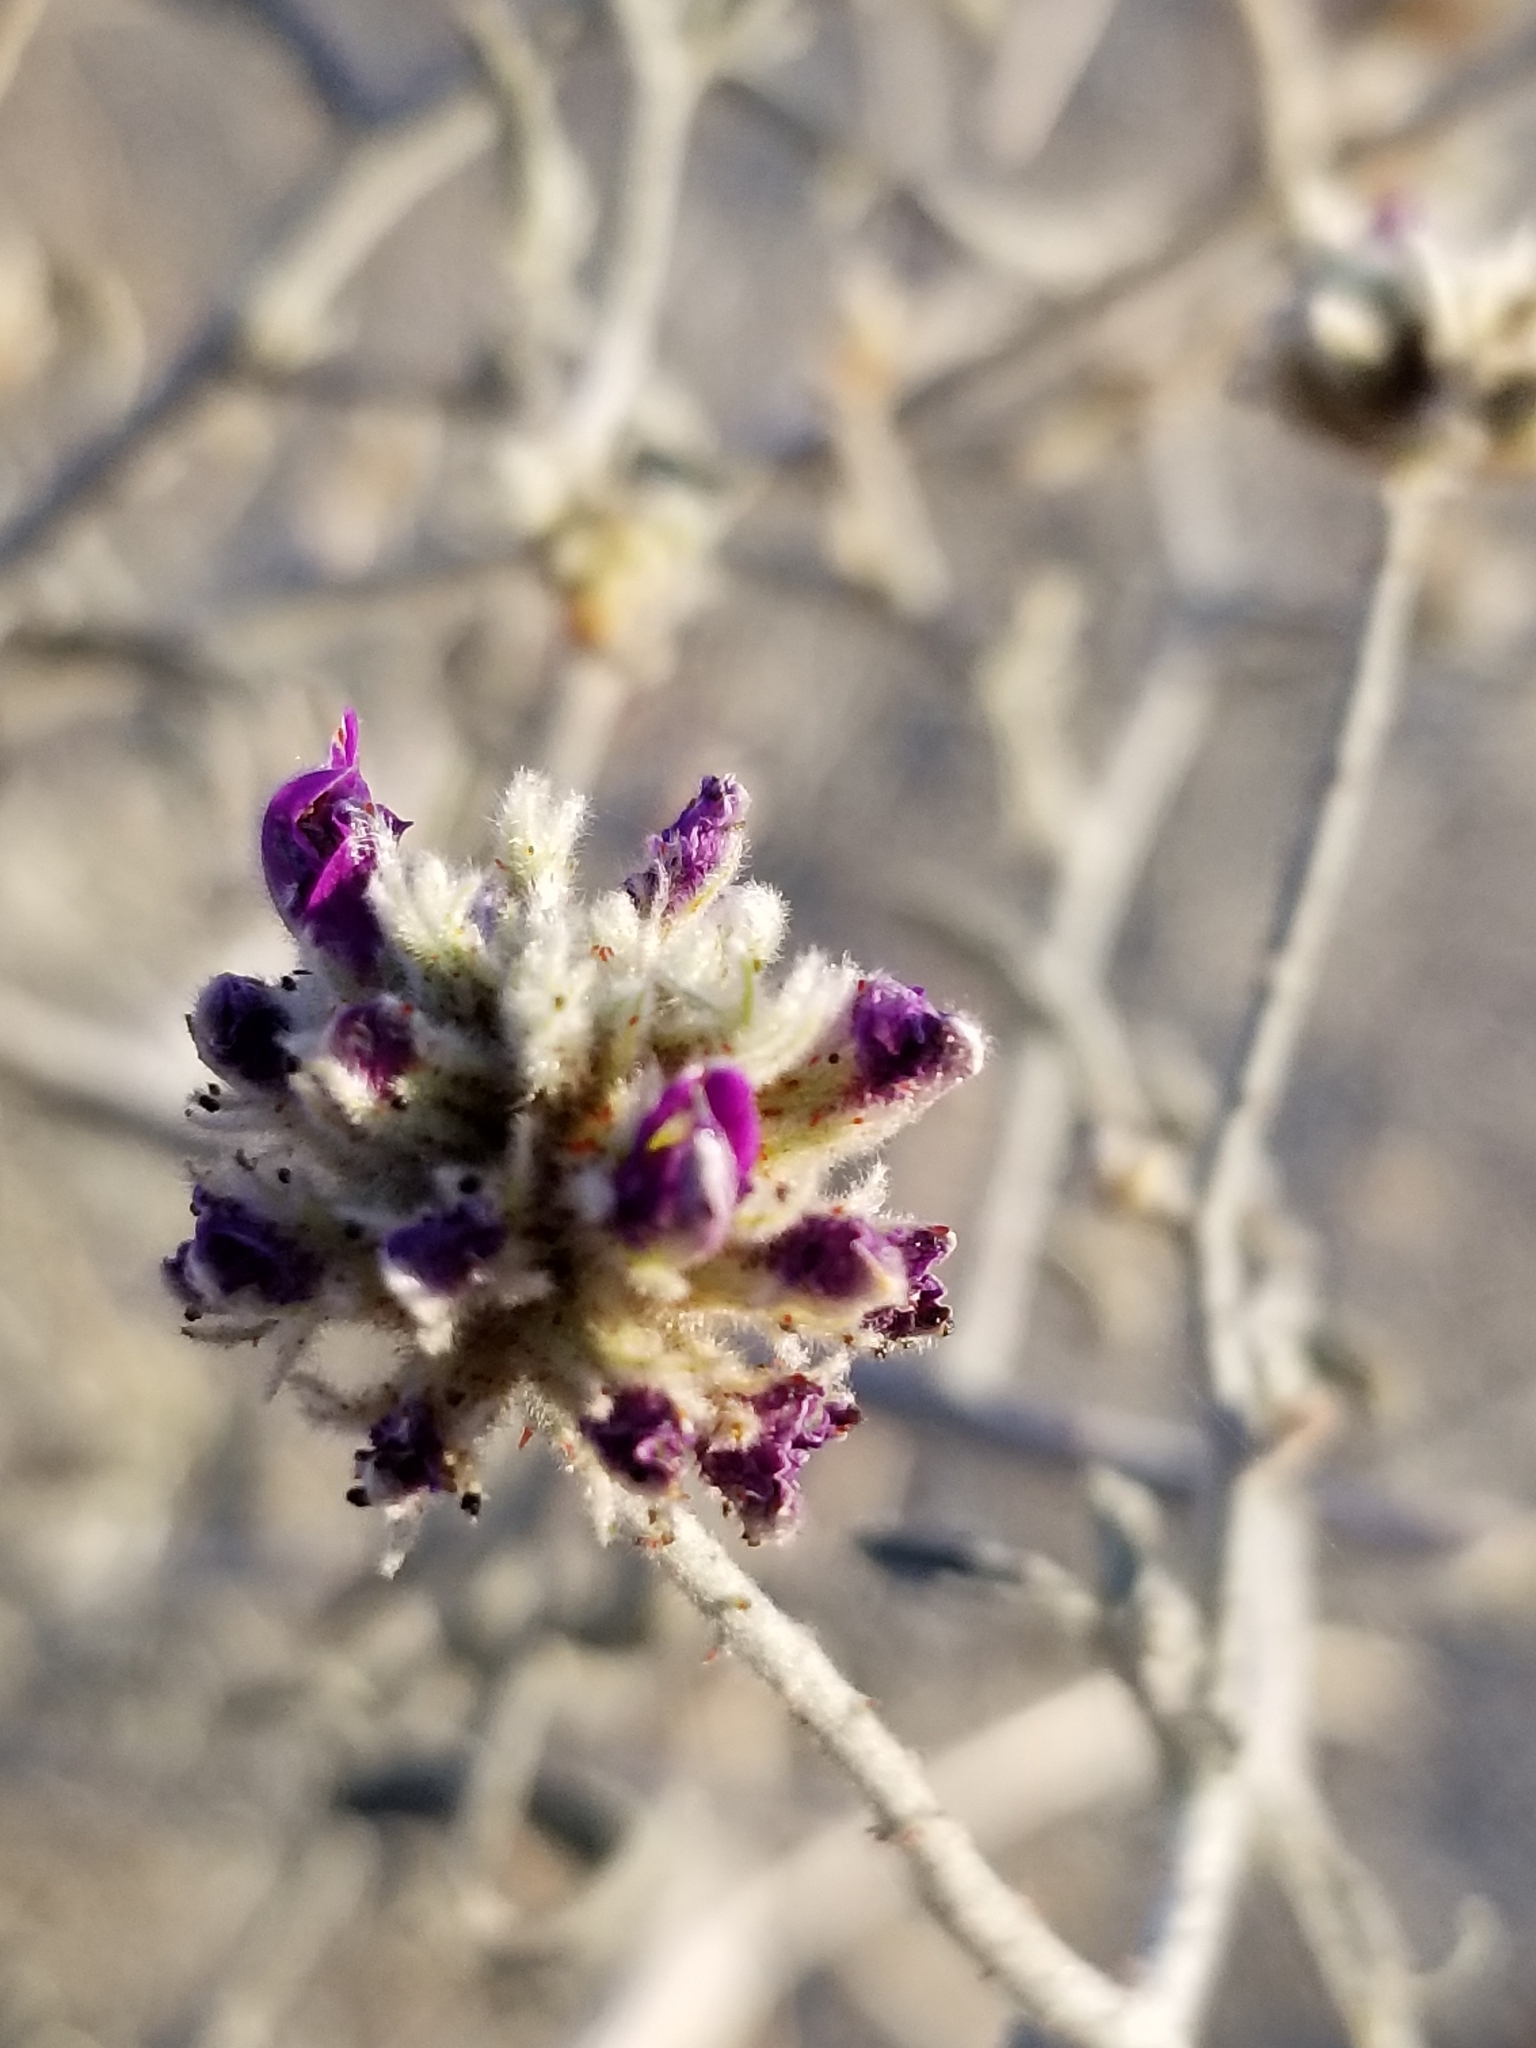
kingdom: Plantae
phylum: Tracheophyta
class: Magnoliopsida
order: Fabales
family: Fabaceae
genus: Psorothamnus
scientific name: Psorothamnus emoryi
